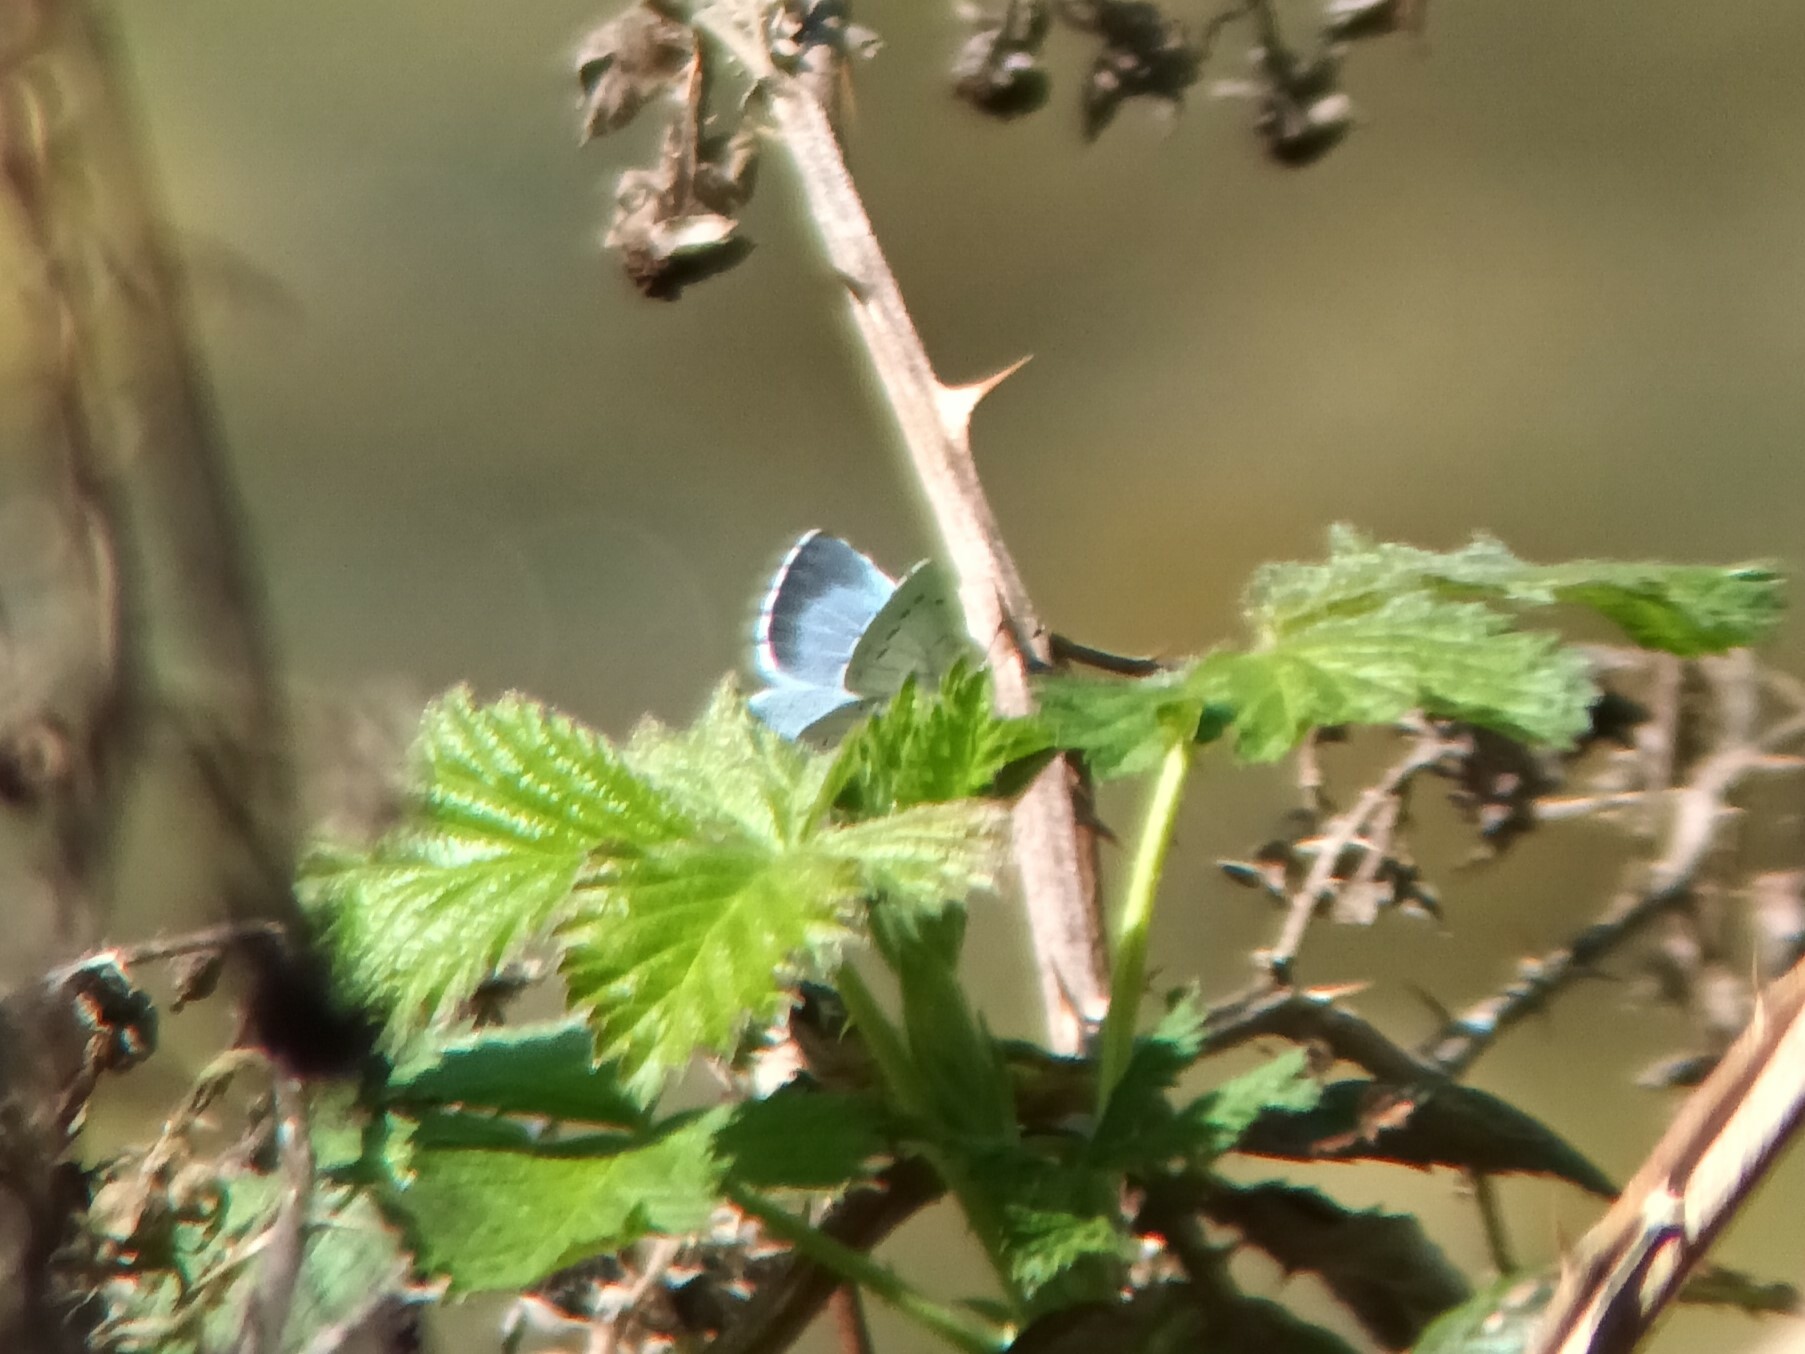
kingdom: Animalia
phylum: Arthropoda
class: Insecta
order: Lepidoptera
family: Lycaenidae
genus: Celastrina
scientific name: Celastrina argiolus
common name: Holly blue
